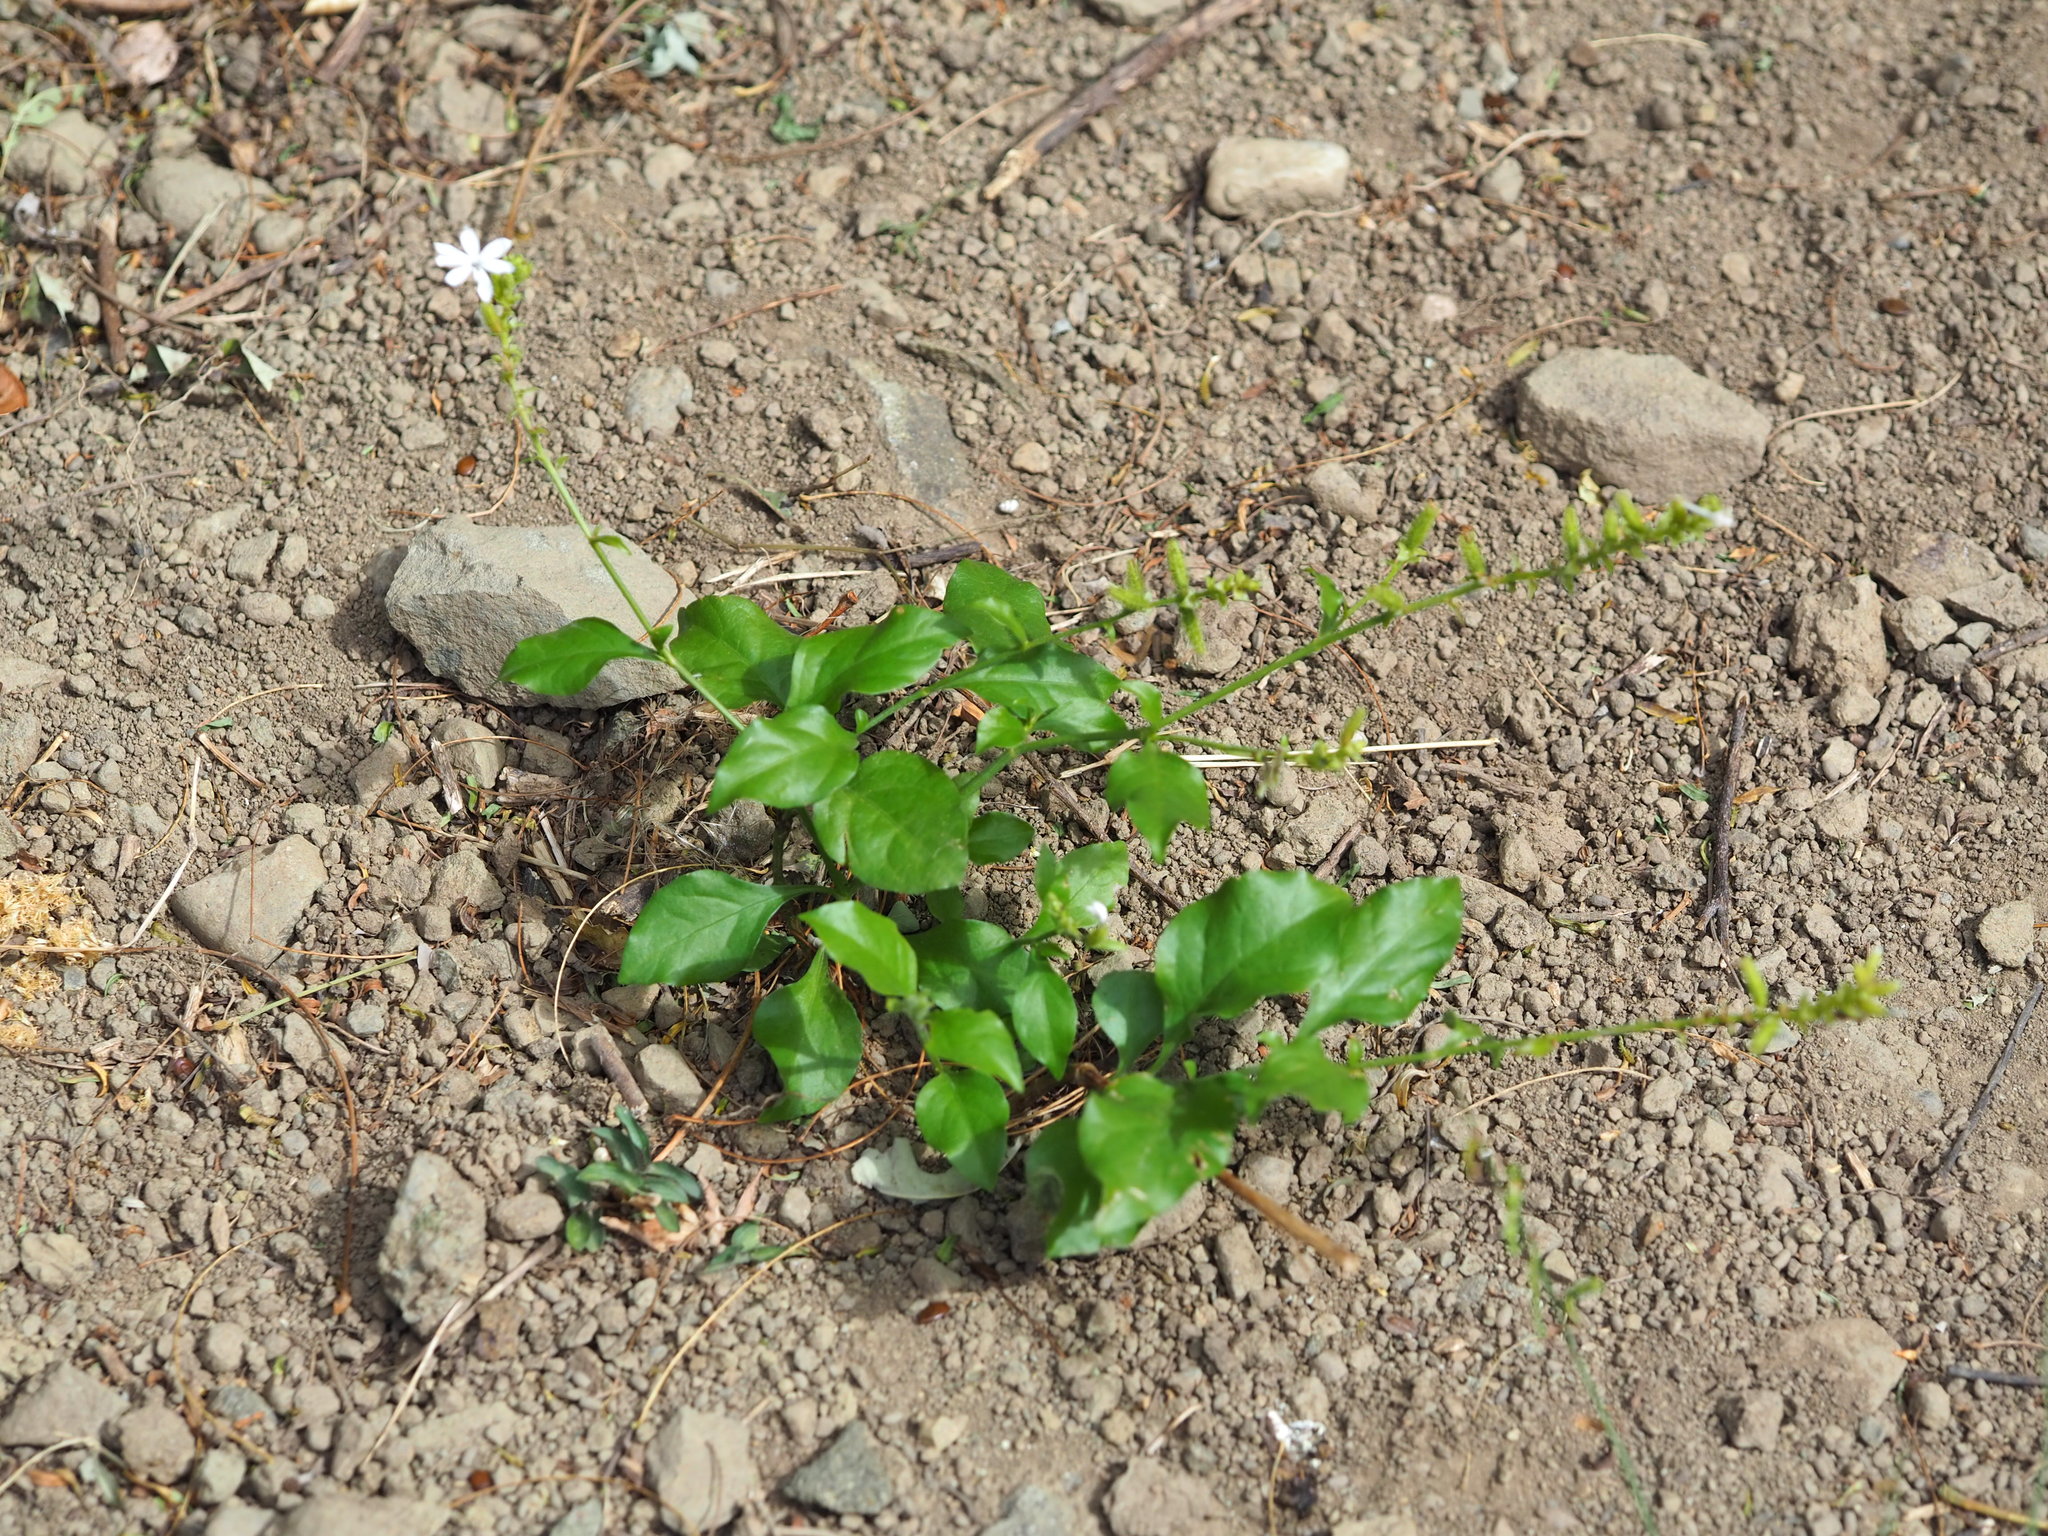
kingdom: Plantae
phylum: Tracheophyta
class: Magnoliopsida
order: Caryophyllales
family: Plumbaginaceae
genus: Plumbago
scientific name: Plumbago zeylanica
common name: Doctorbush
